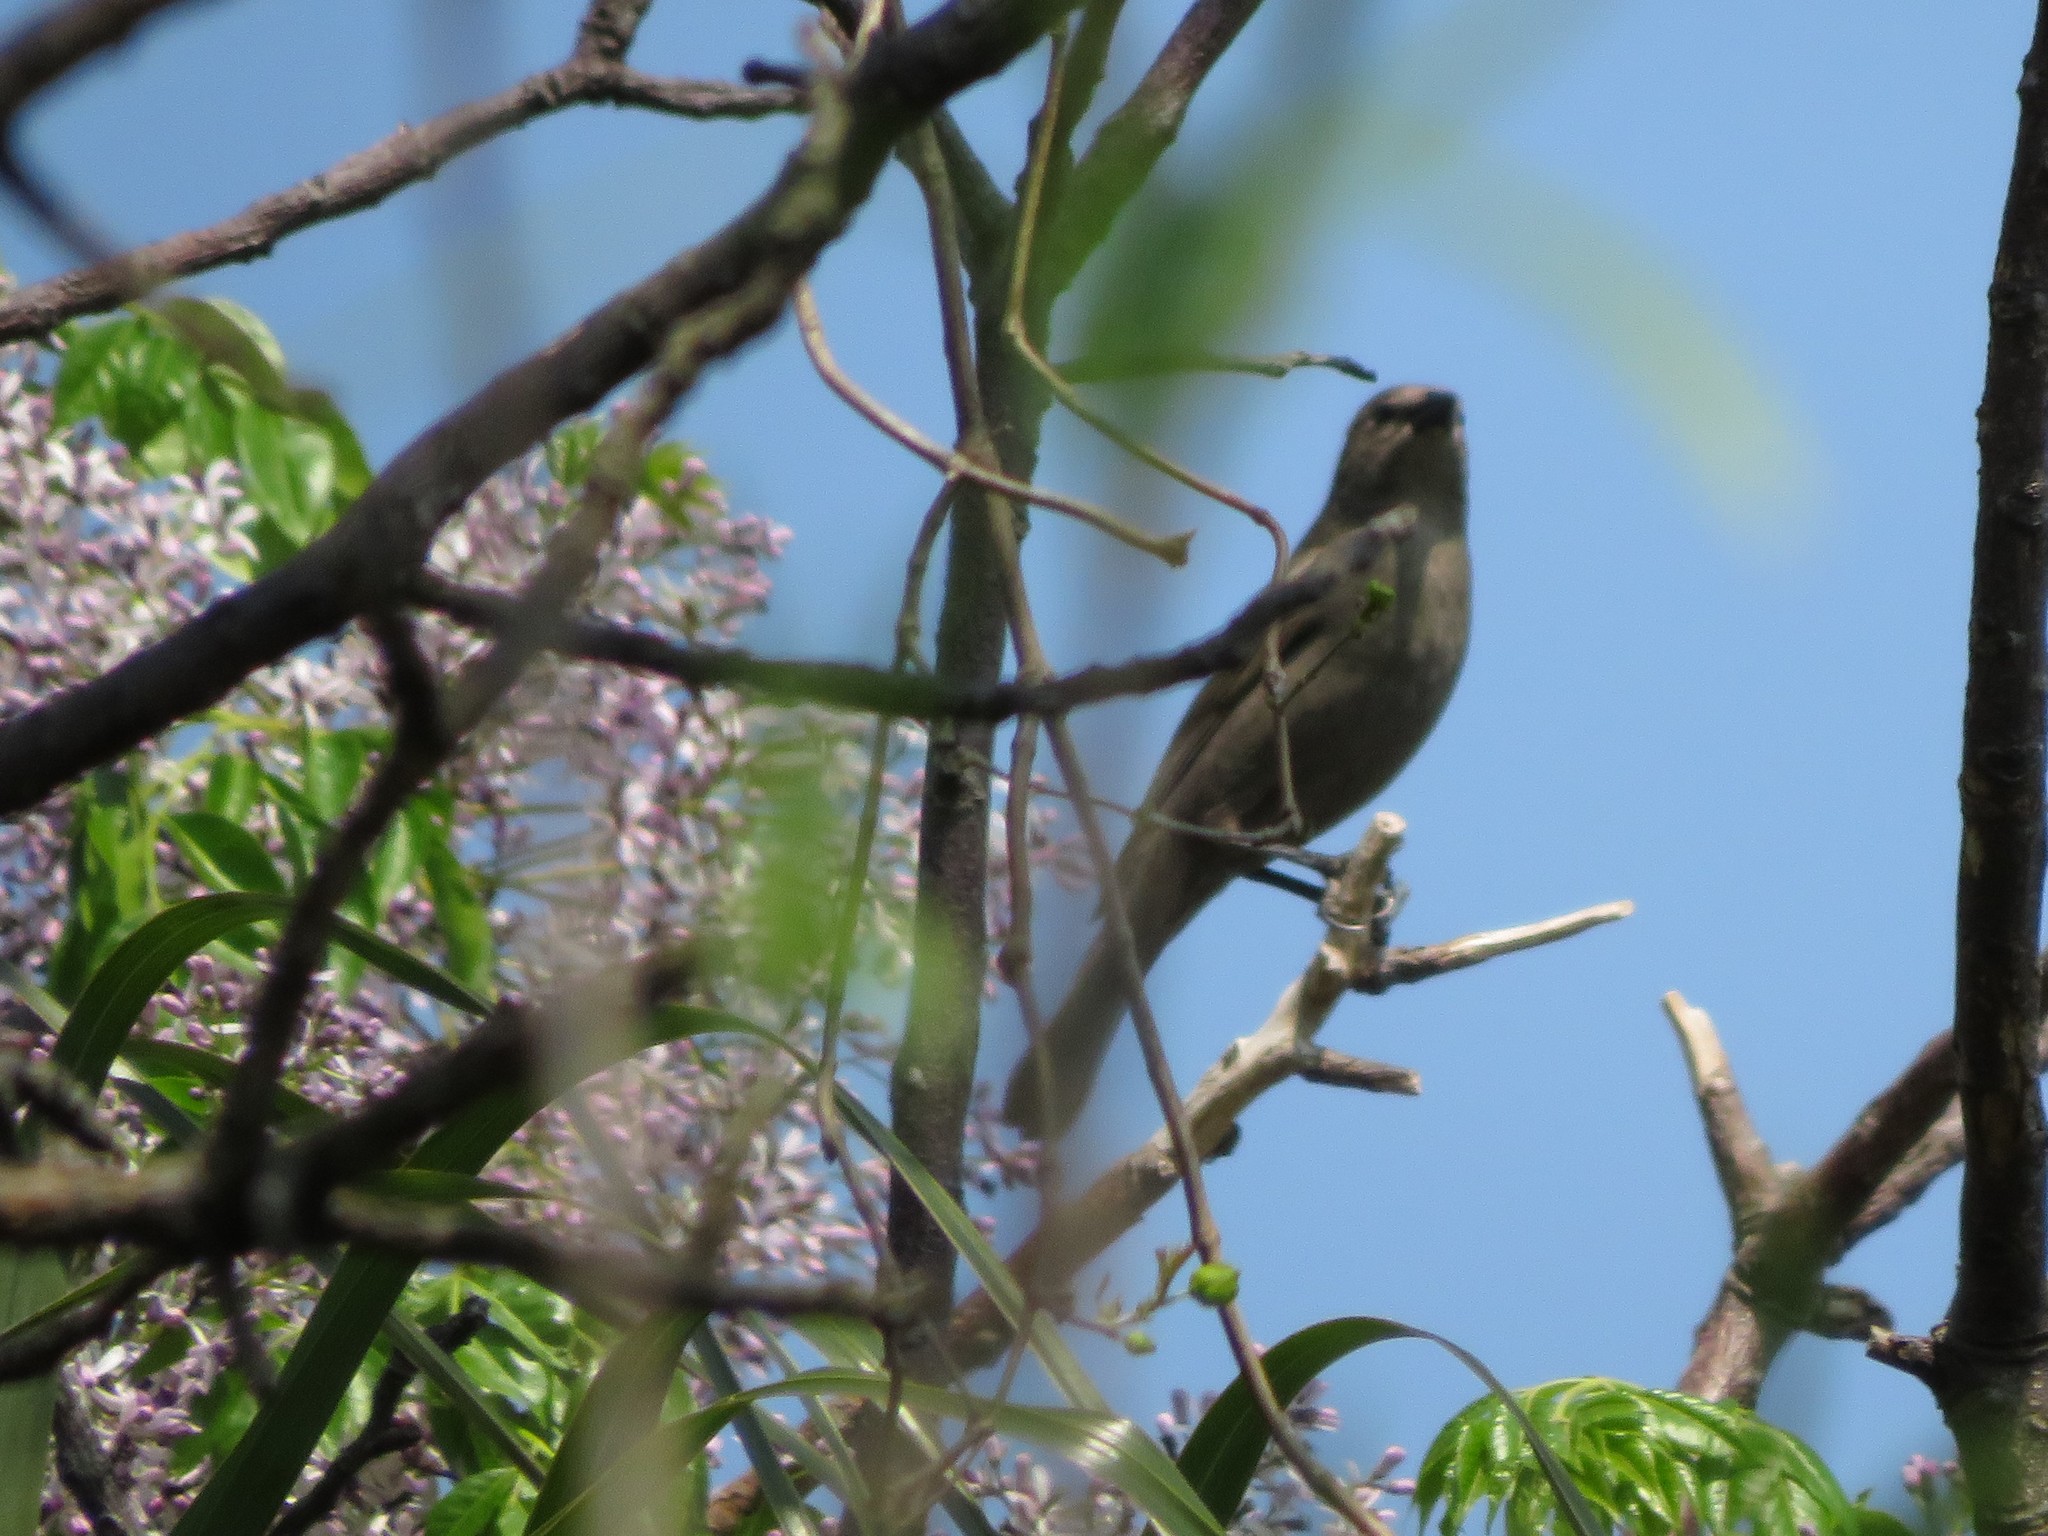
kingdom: Animalia
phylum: Chordata
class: Aves
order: Passeriformes
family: Icteridae
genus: Molothrus
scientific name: Molothrus bonariensis
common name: Shiny cowbird
